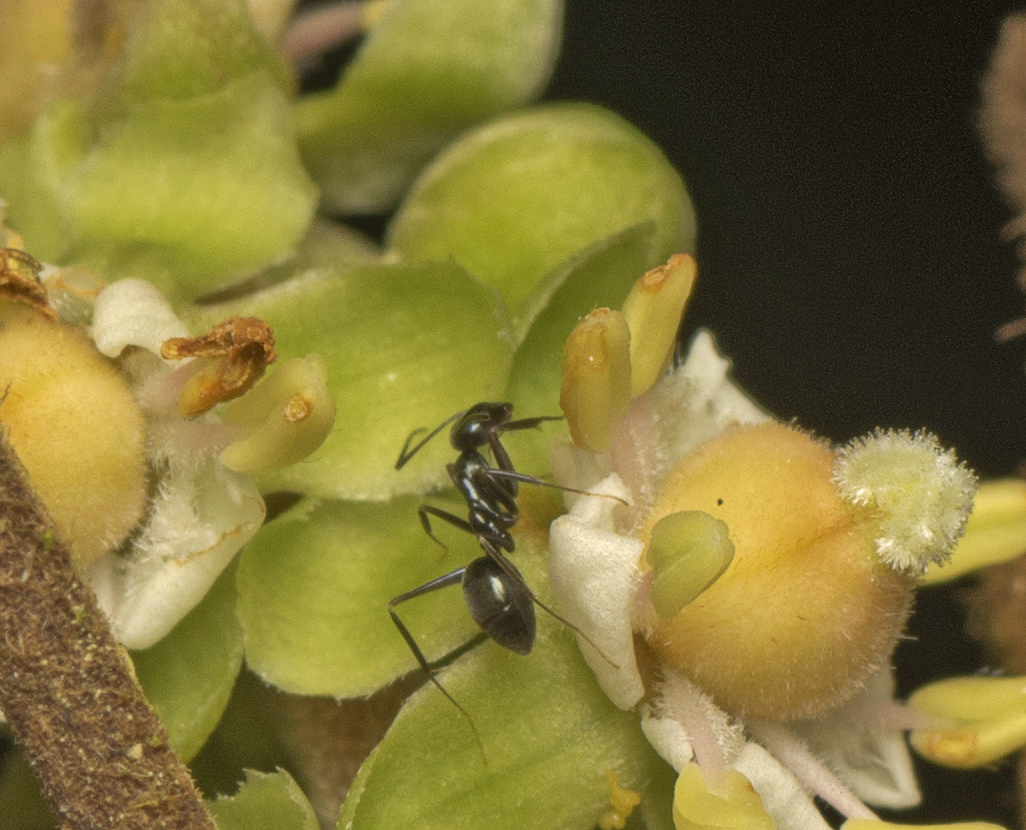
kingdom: Animalia
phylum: Arthropoda
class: Insecta
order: Hymenoptera
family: Formicidae
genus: Leptomyrmex
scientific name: Leptomyrmex burwelli
